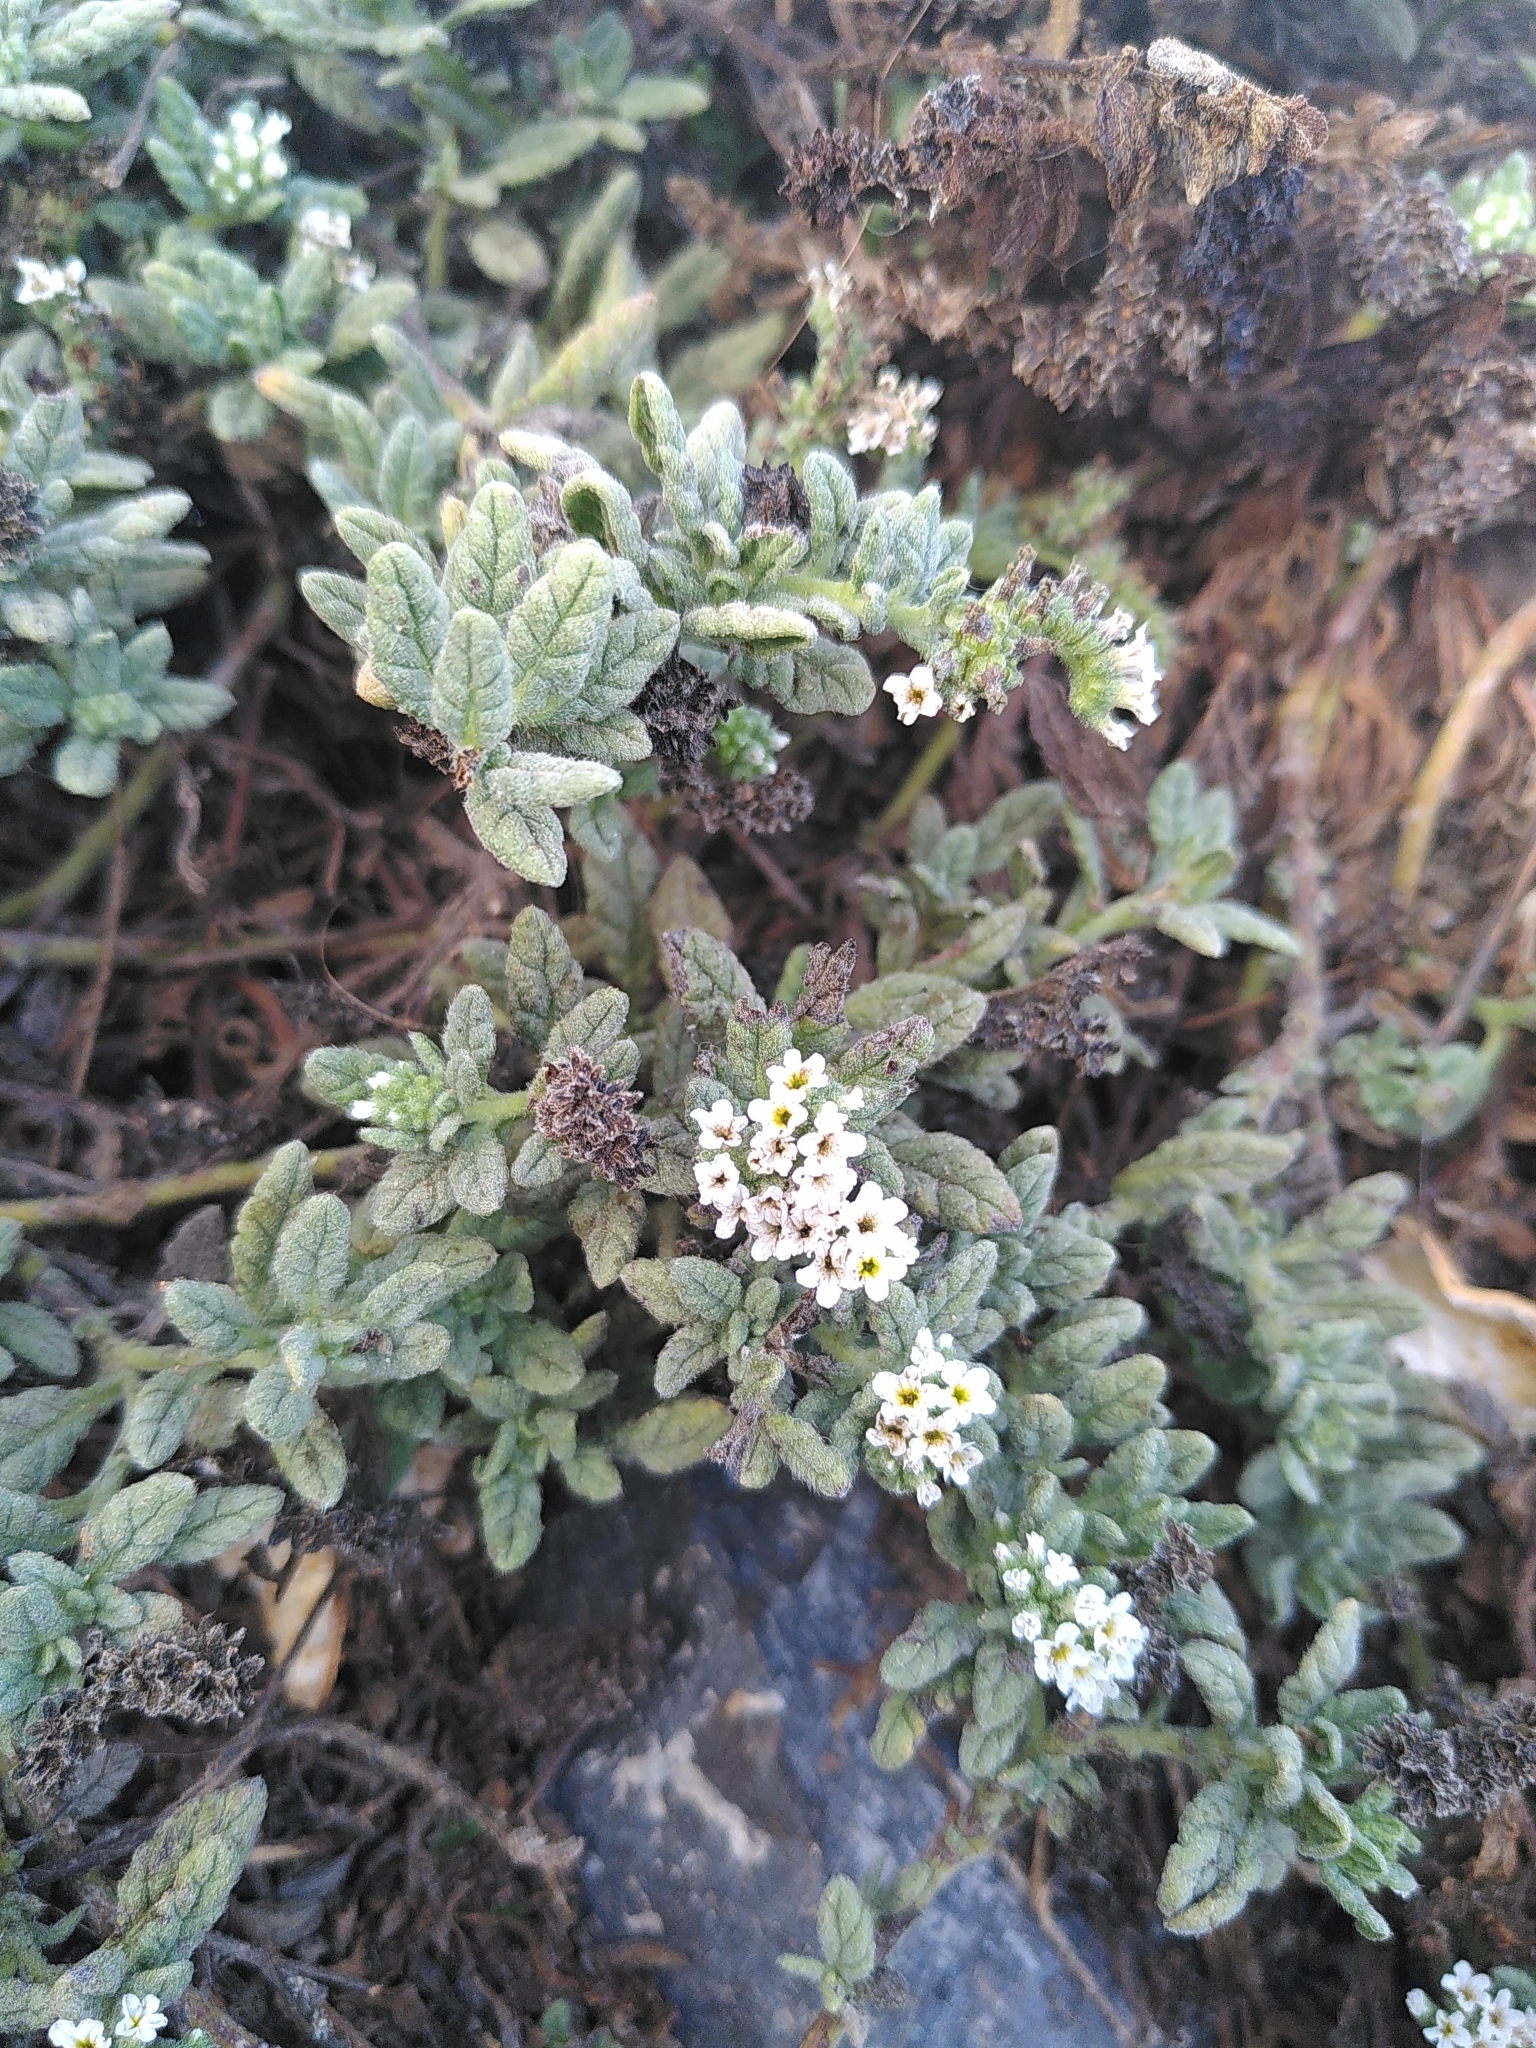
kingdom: Plantae
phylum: Tracheophyta
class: Magnoliopsida
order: Boraginales
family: Heliotropiaceae
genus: Heliotropium
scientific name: Heliotropium ramosissimum
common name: Wavy heliotrope
